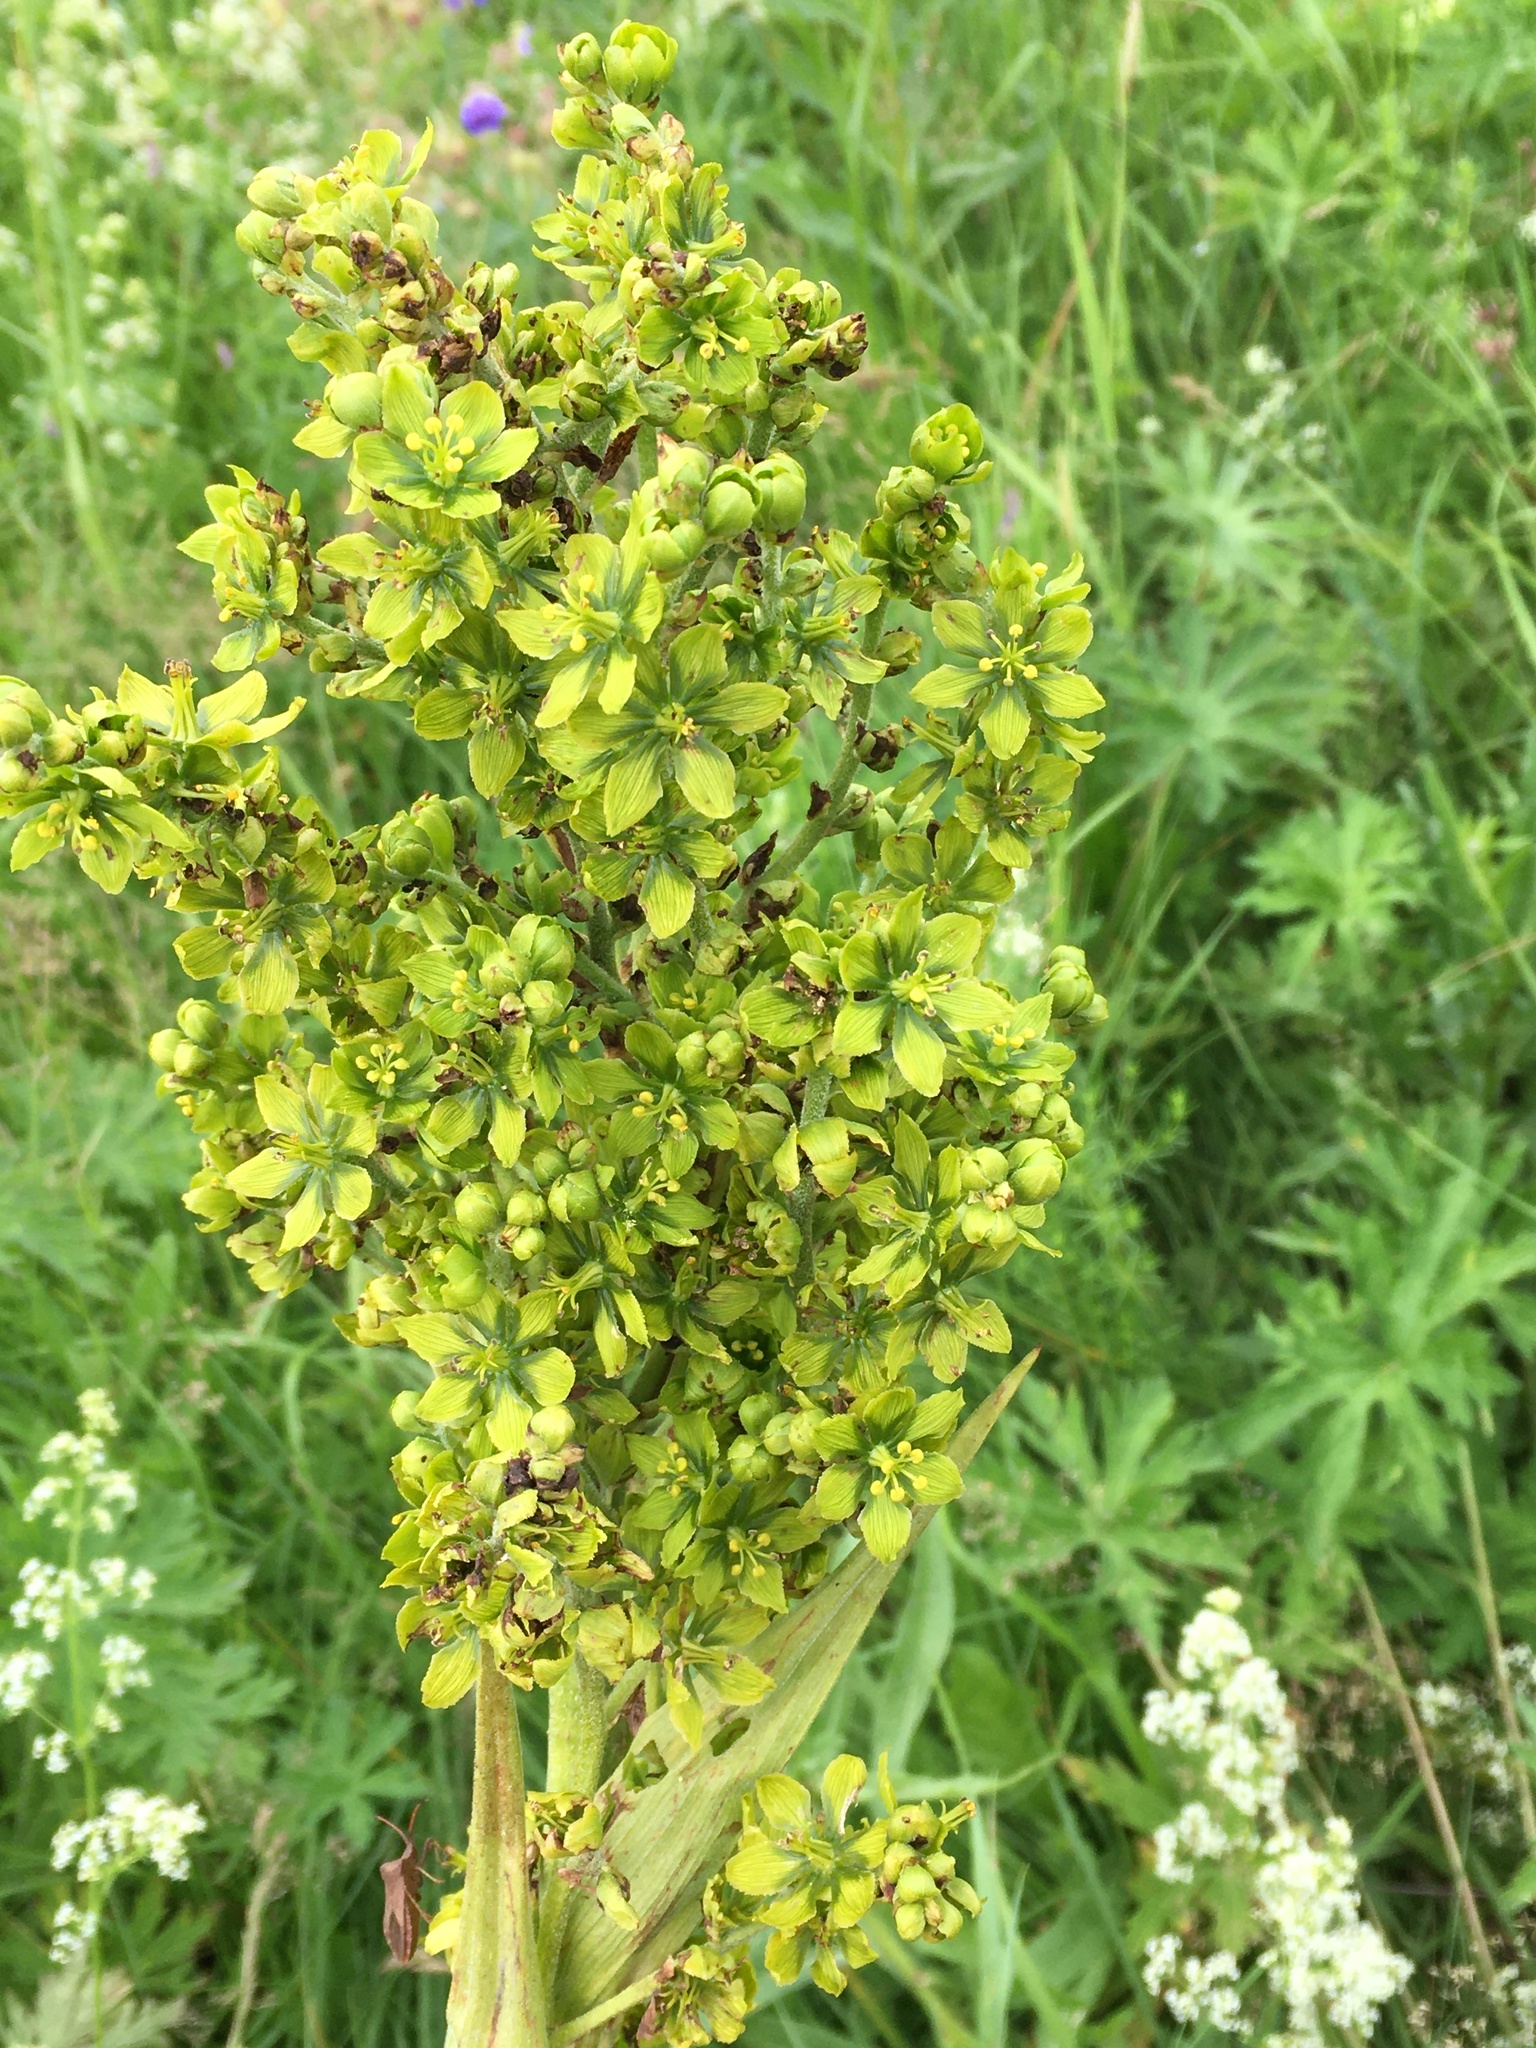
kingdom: Plantae
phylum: Tracheophyta
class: Liliopsida
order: Liliales
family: Melanthiaceae
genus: Veratrum
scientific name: Veratrum lobelianum
